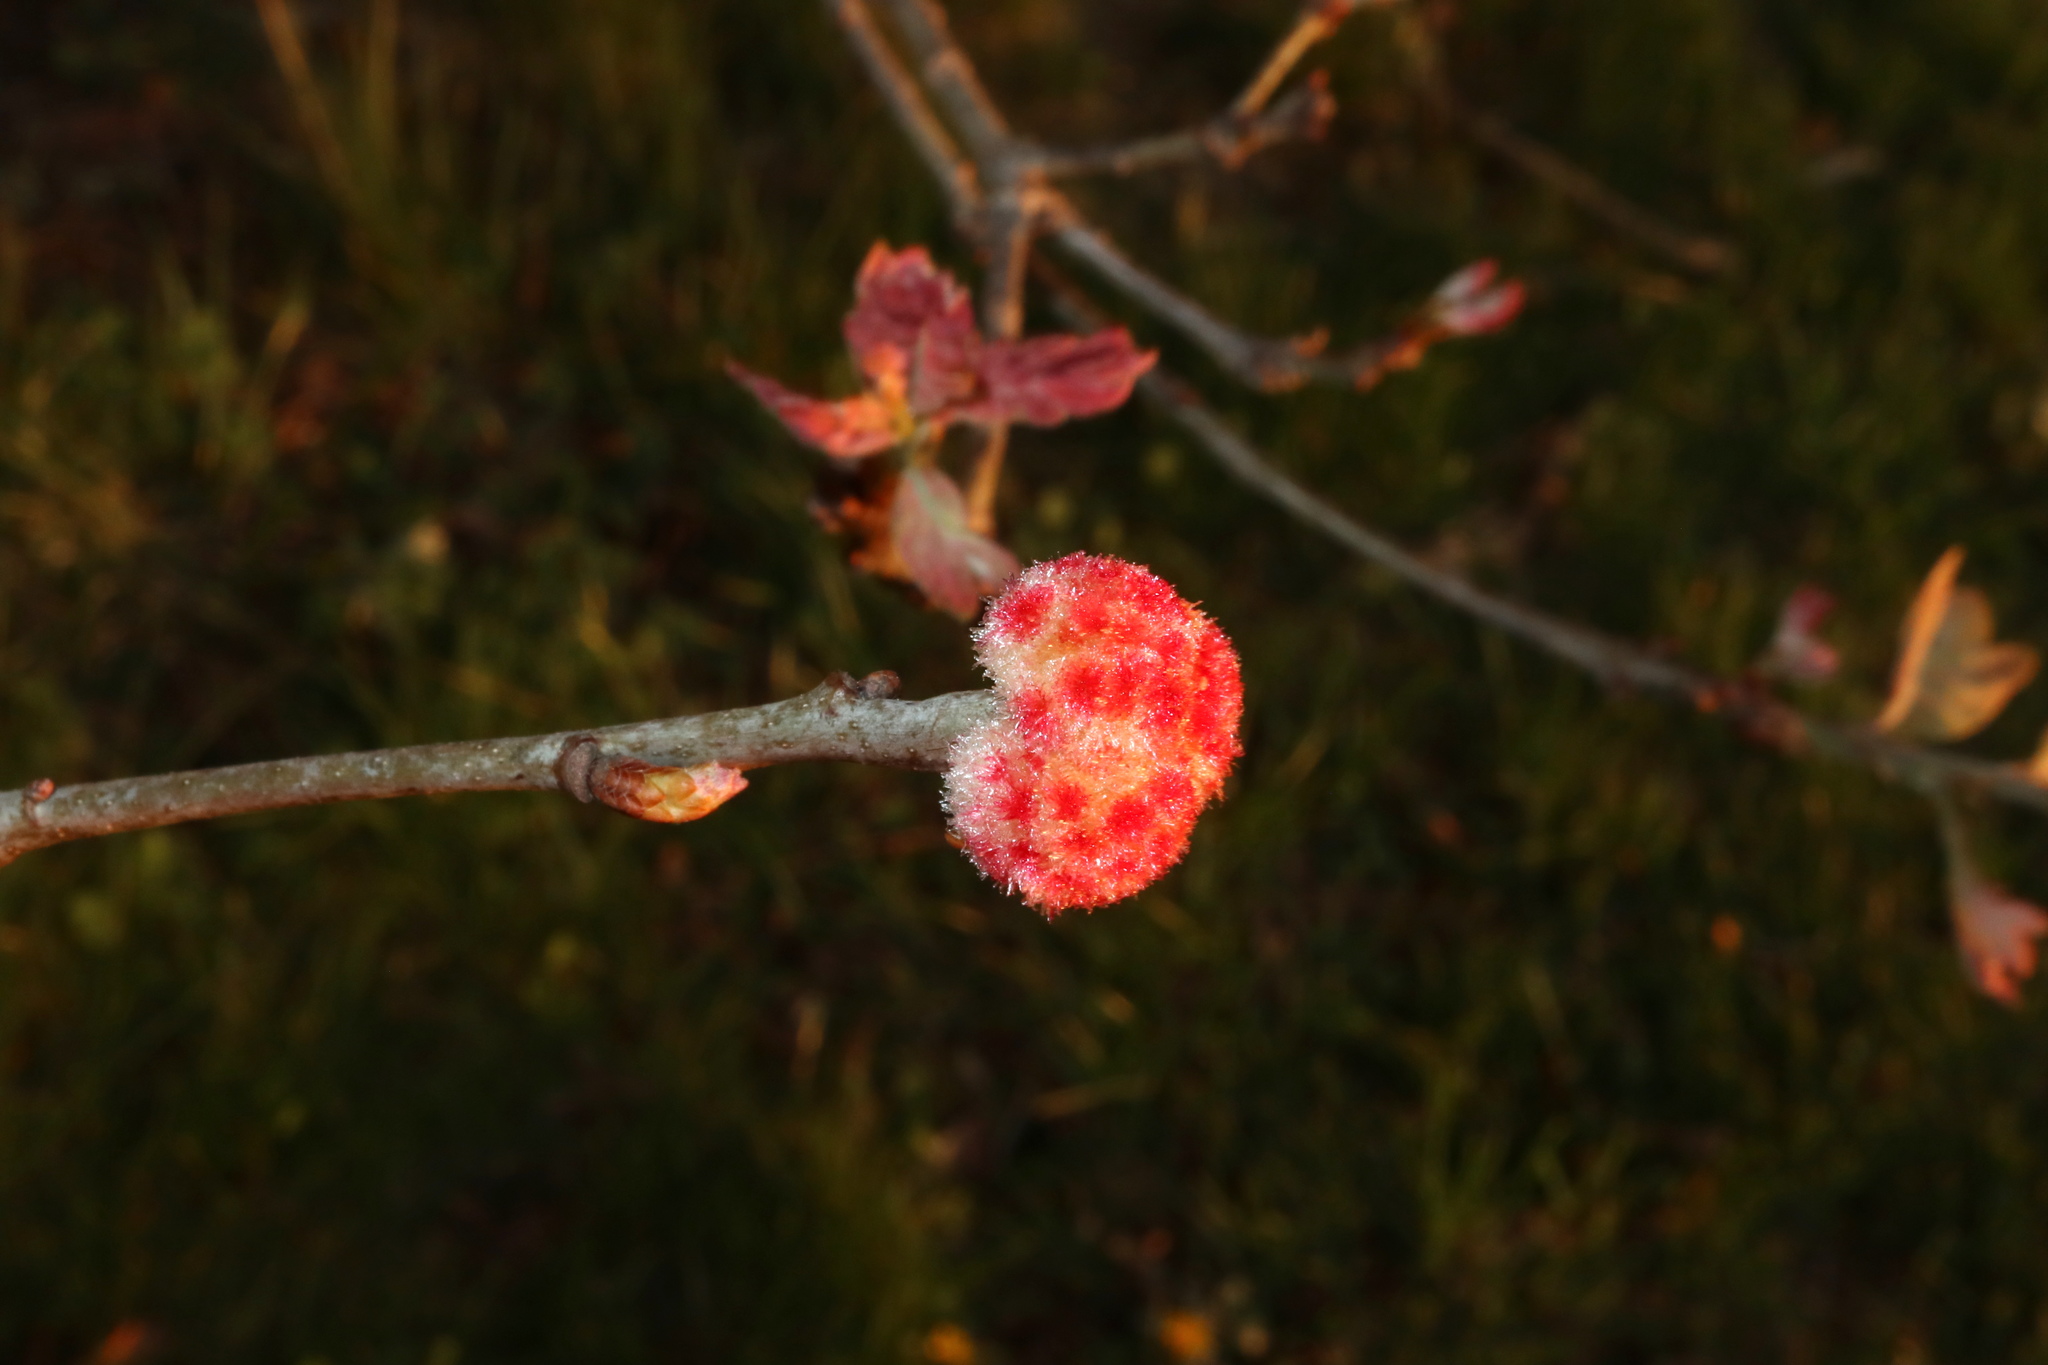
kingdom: Animalia
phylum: Arthropoda
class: Insecta
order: Hymenoptera
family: Cynipidae
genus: Callirhytis
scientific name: Callirhytis
